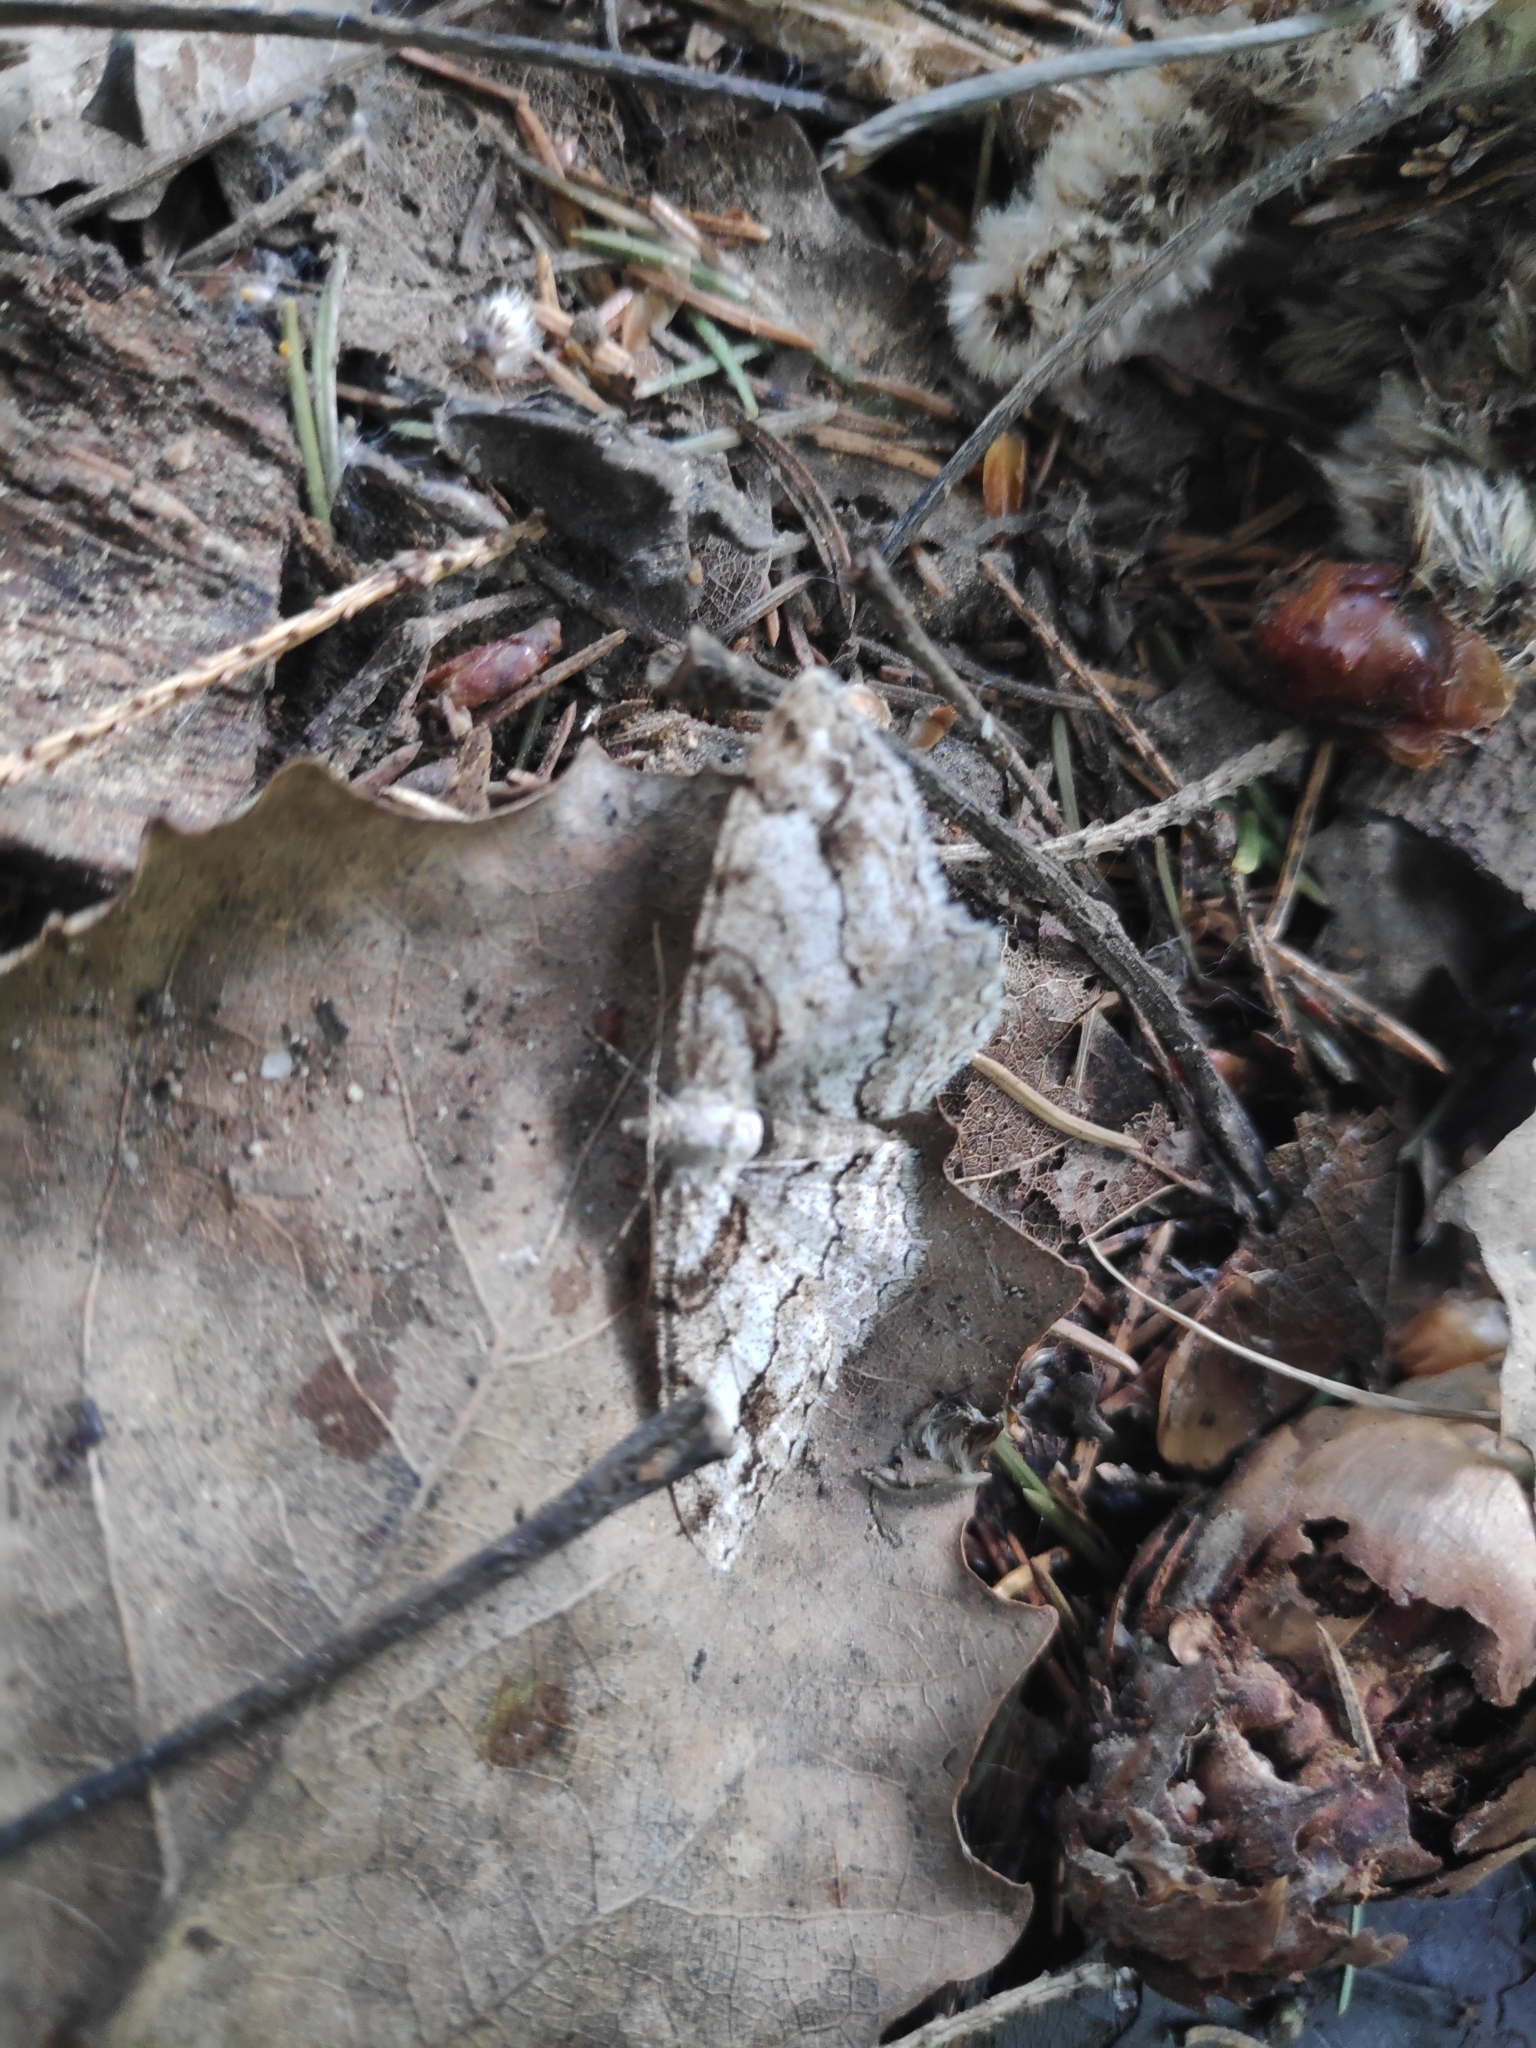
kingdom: Animalia
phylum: Arthropoda
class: Insecta
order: Lepidoptera
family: Geometridae
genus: Paradarisa
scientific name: Paradarisa consonaria
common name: Square spot
